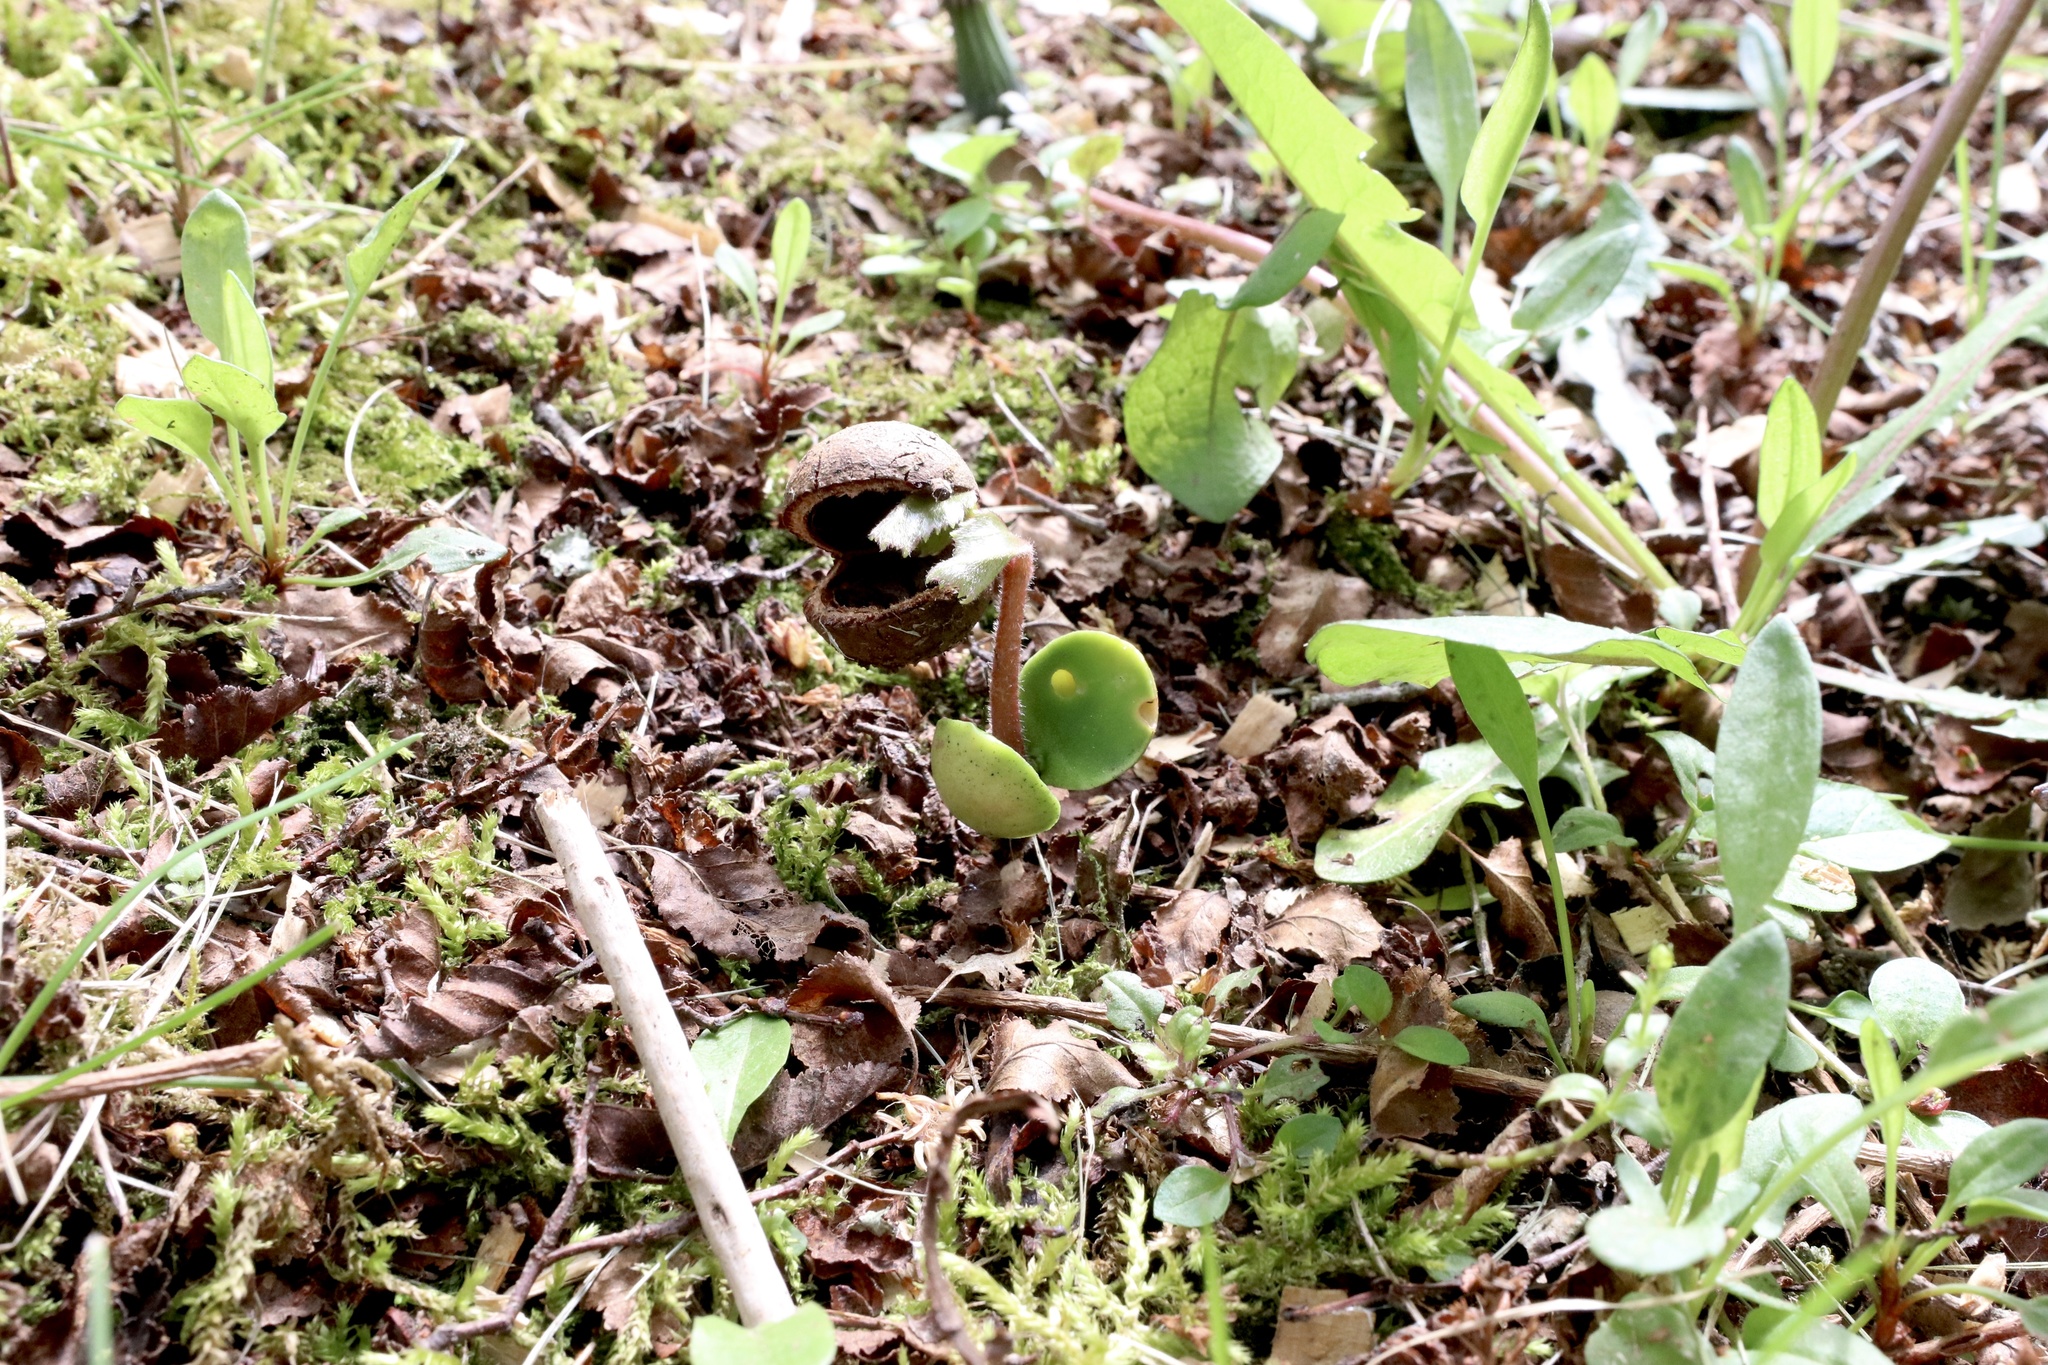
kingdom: Plantae
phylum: Tracheophyta
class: Magnoliopsida
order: Proteales
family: Proteaceae
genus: Gevuina
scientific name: Gevuina avellana
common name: Chilean hazel
